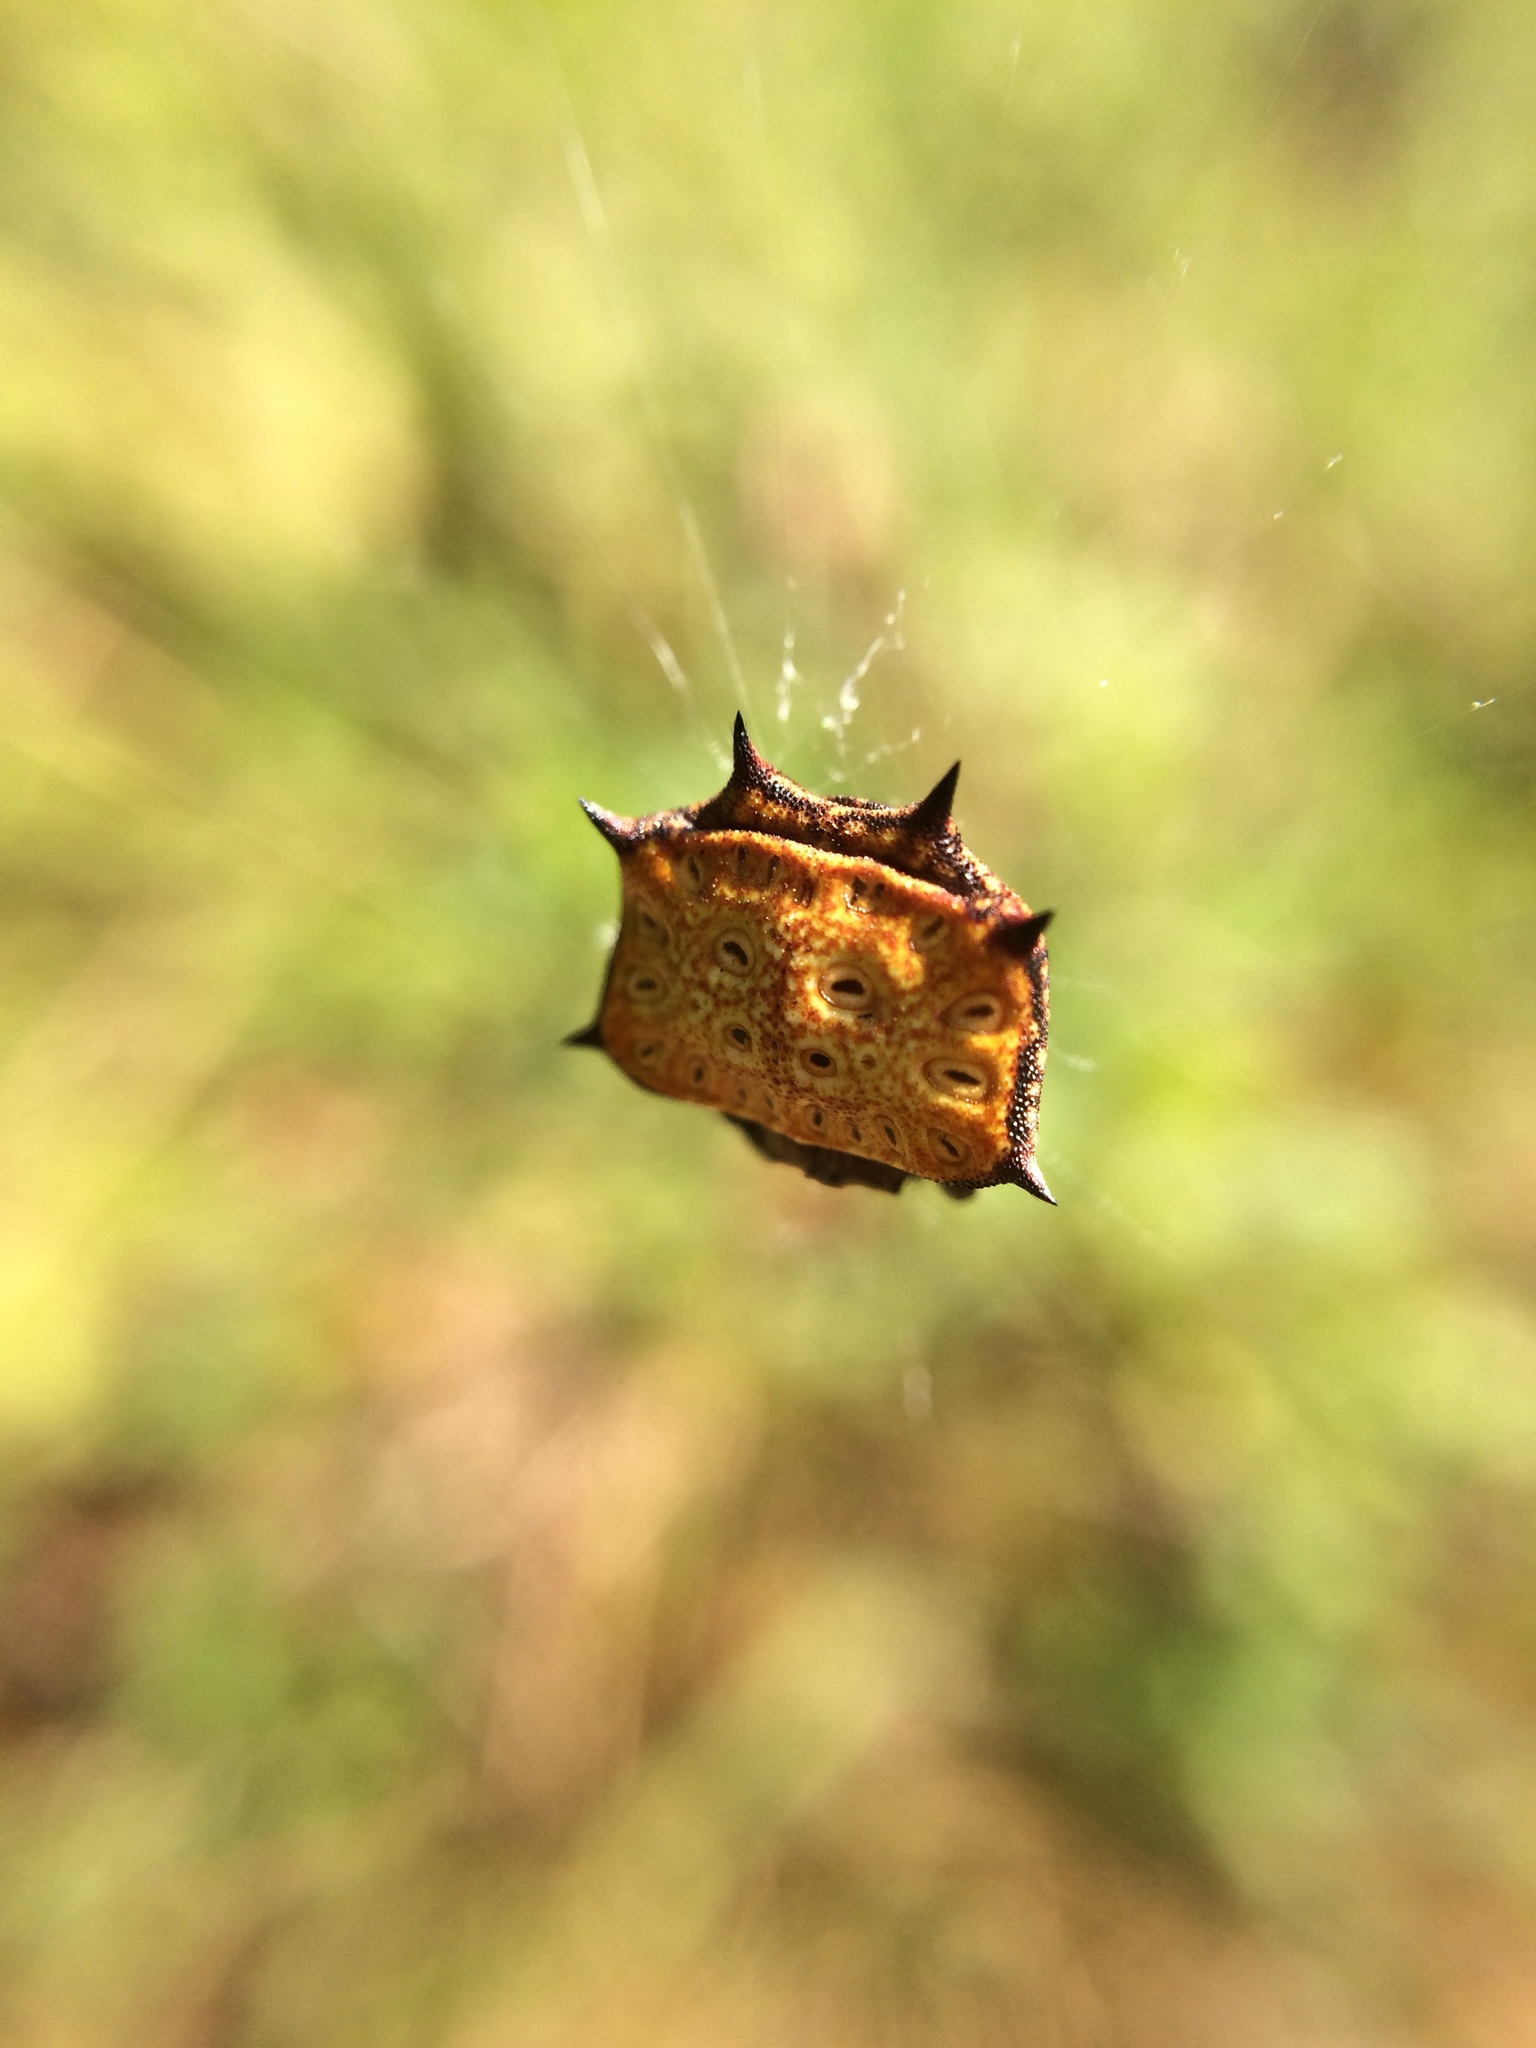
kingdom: Animalia
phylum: Arthropoda
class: Arachnida
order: Araneae
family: Araneidae
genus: Isoxya
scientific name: Isoxya tabulata
